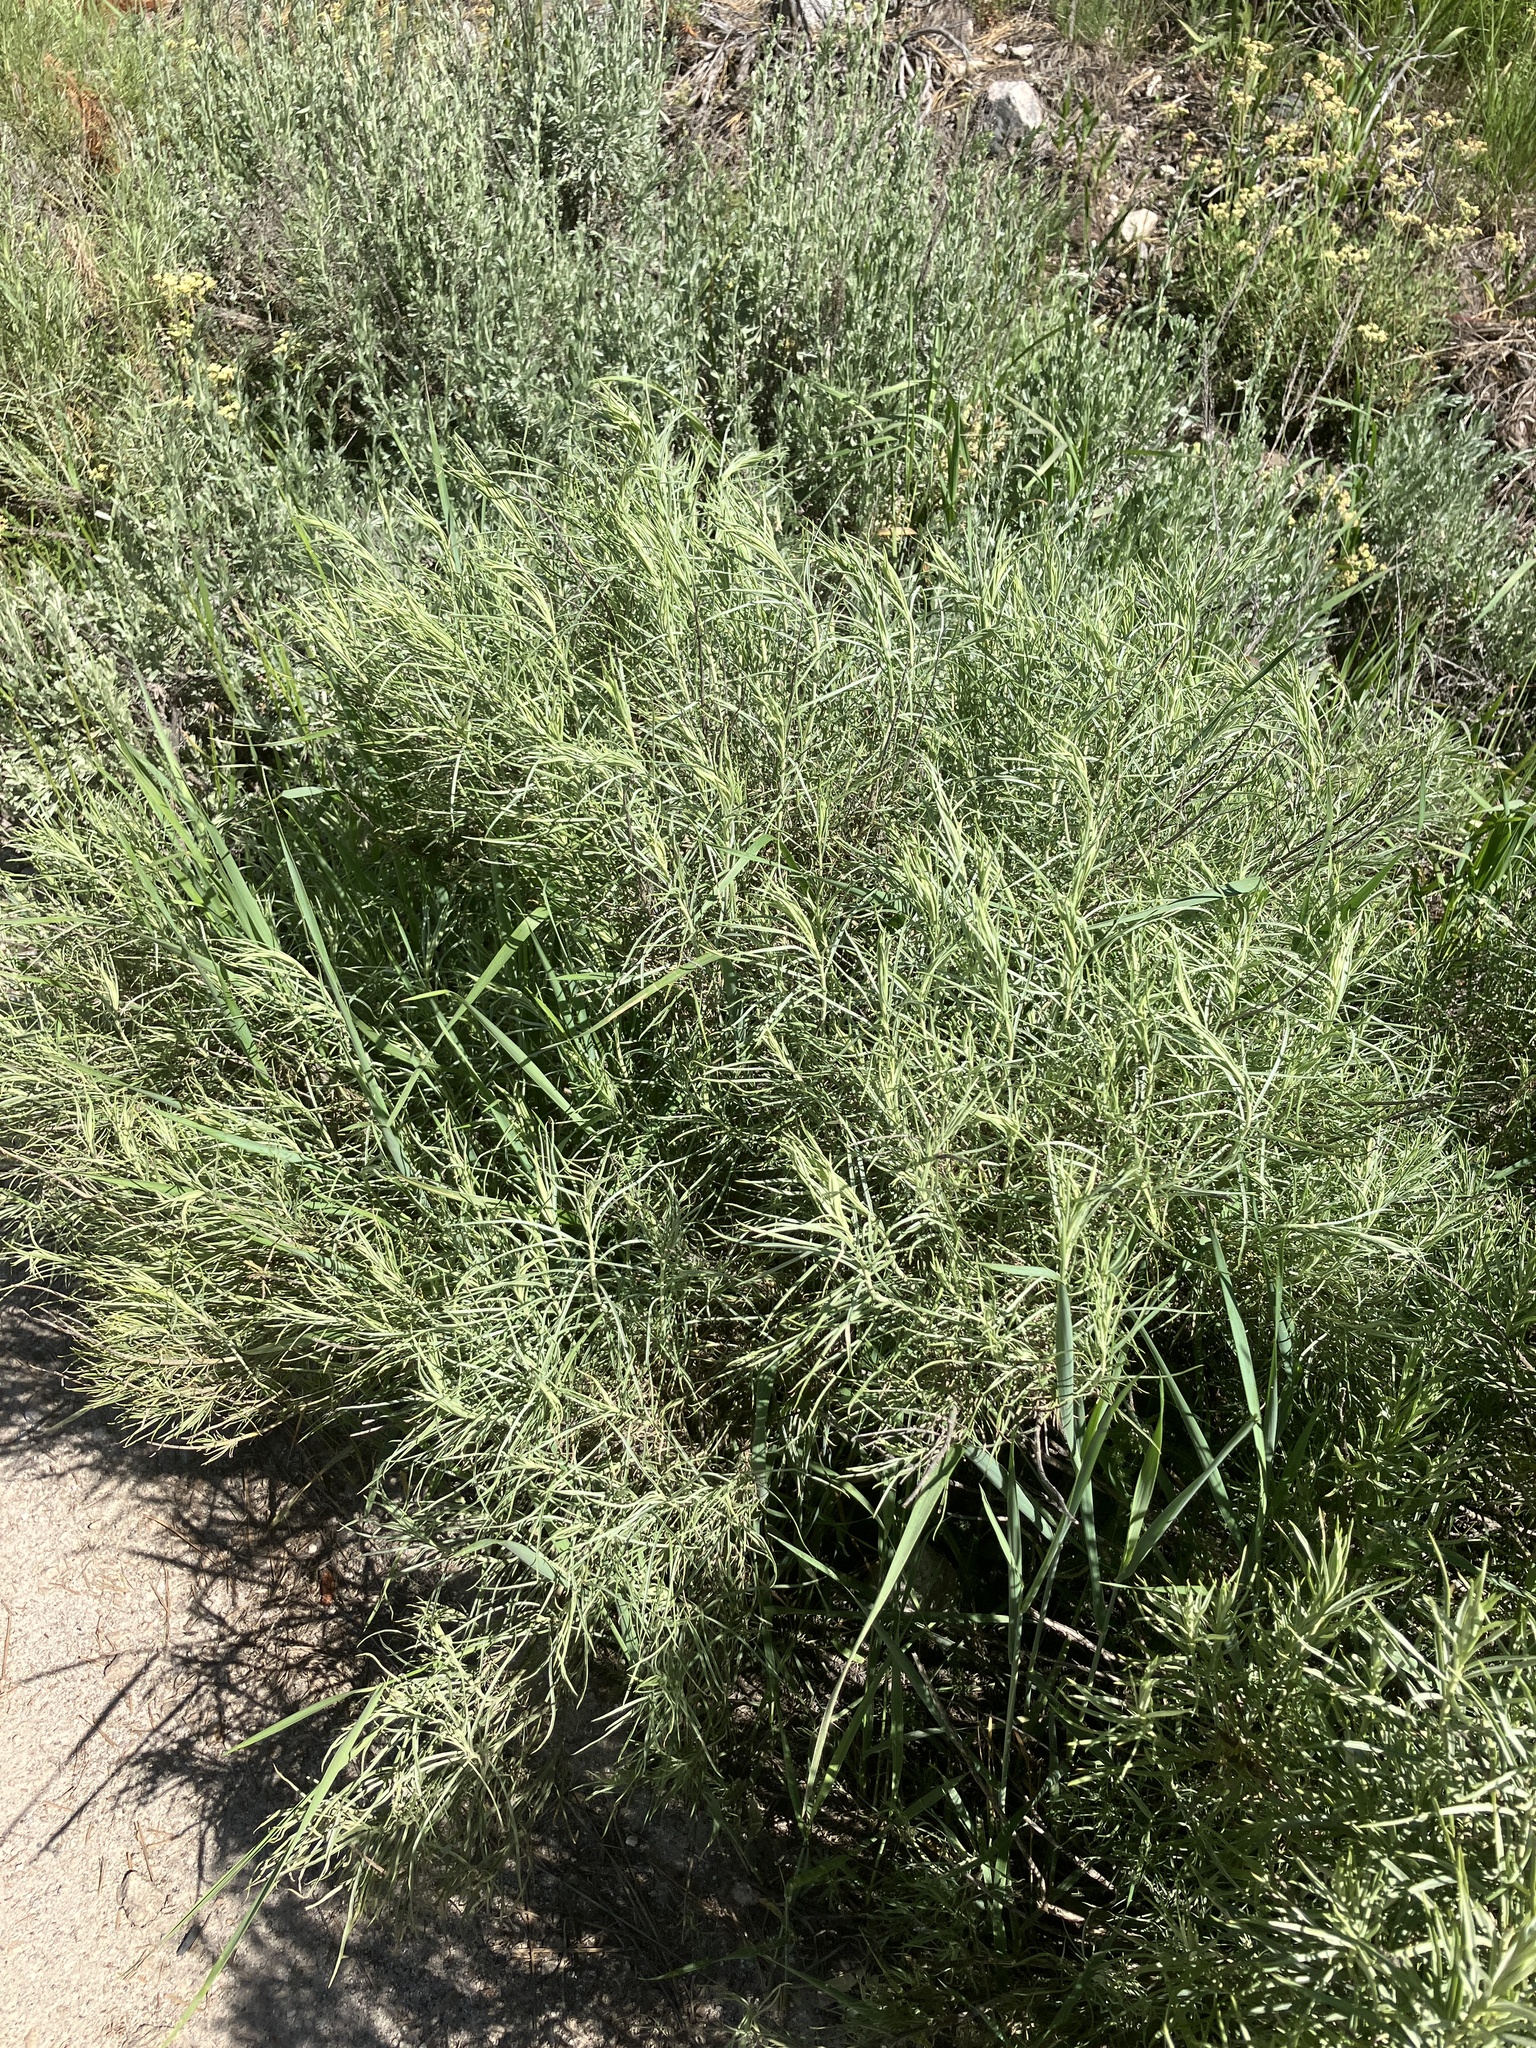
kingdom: Plantae
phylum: Tracheophyta
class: Magnoliopsida
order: Asterales
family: Asteraceae
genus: Ericameria
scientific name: Ericameria nauseosa
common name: Rubber rabbitbrush
